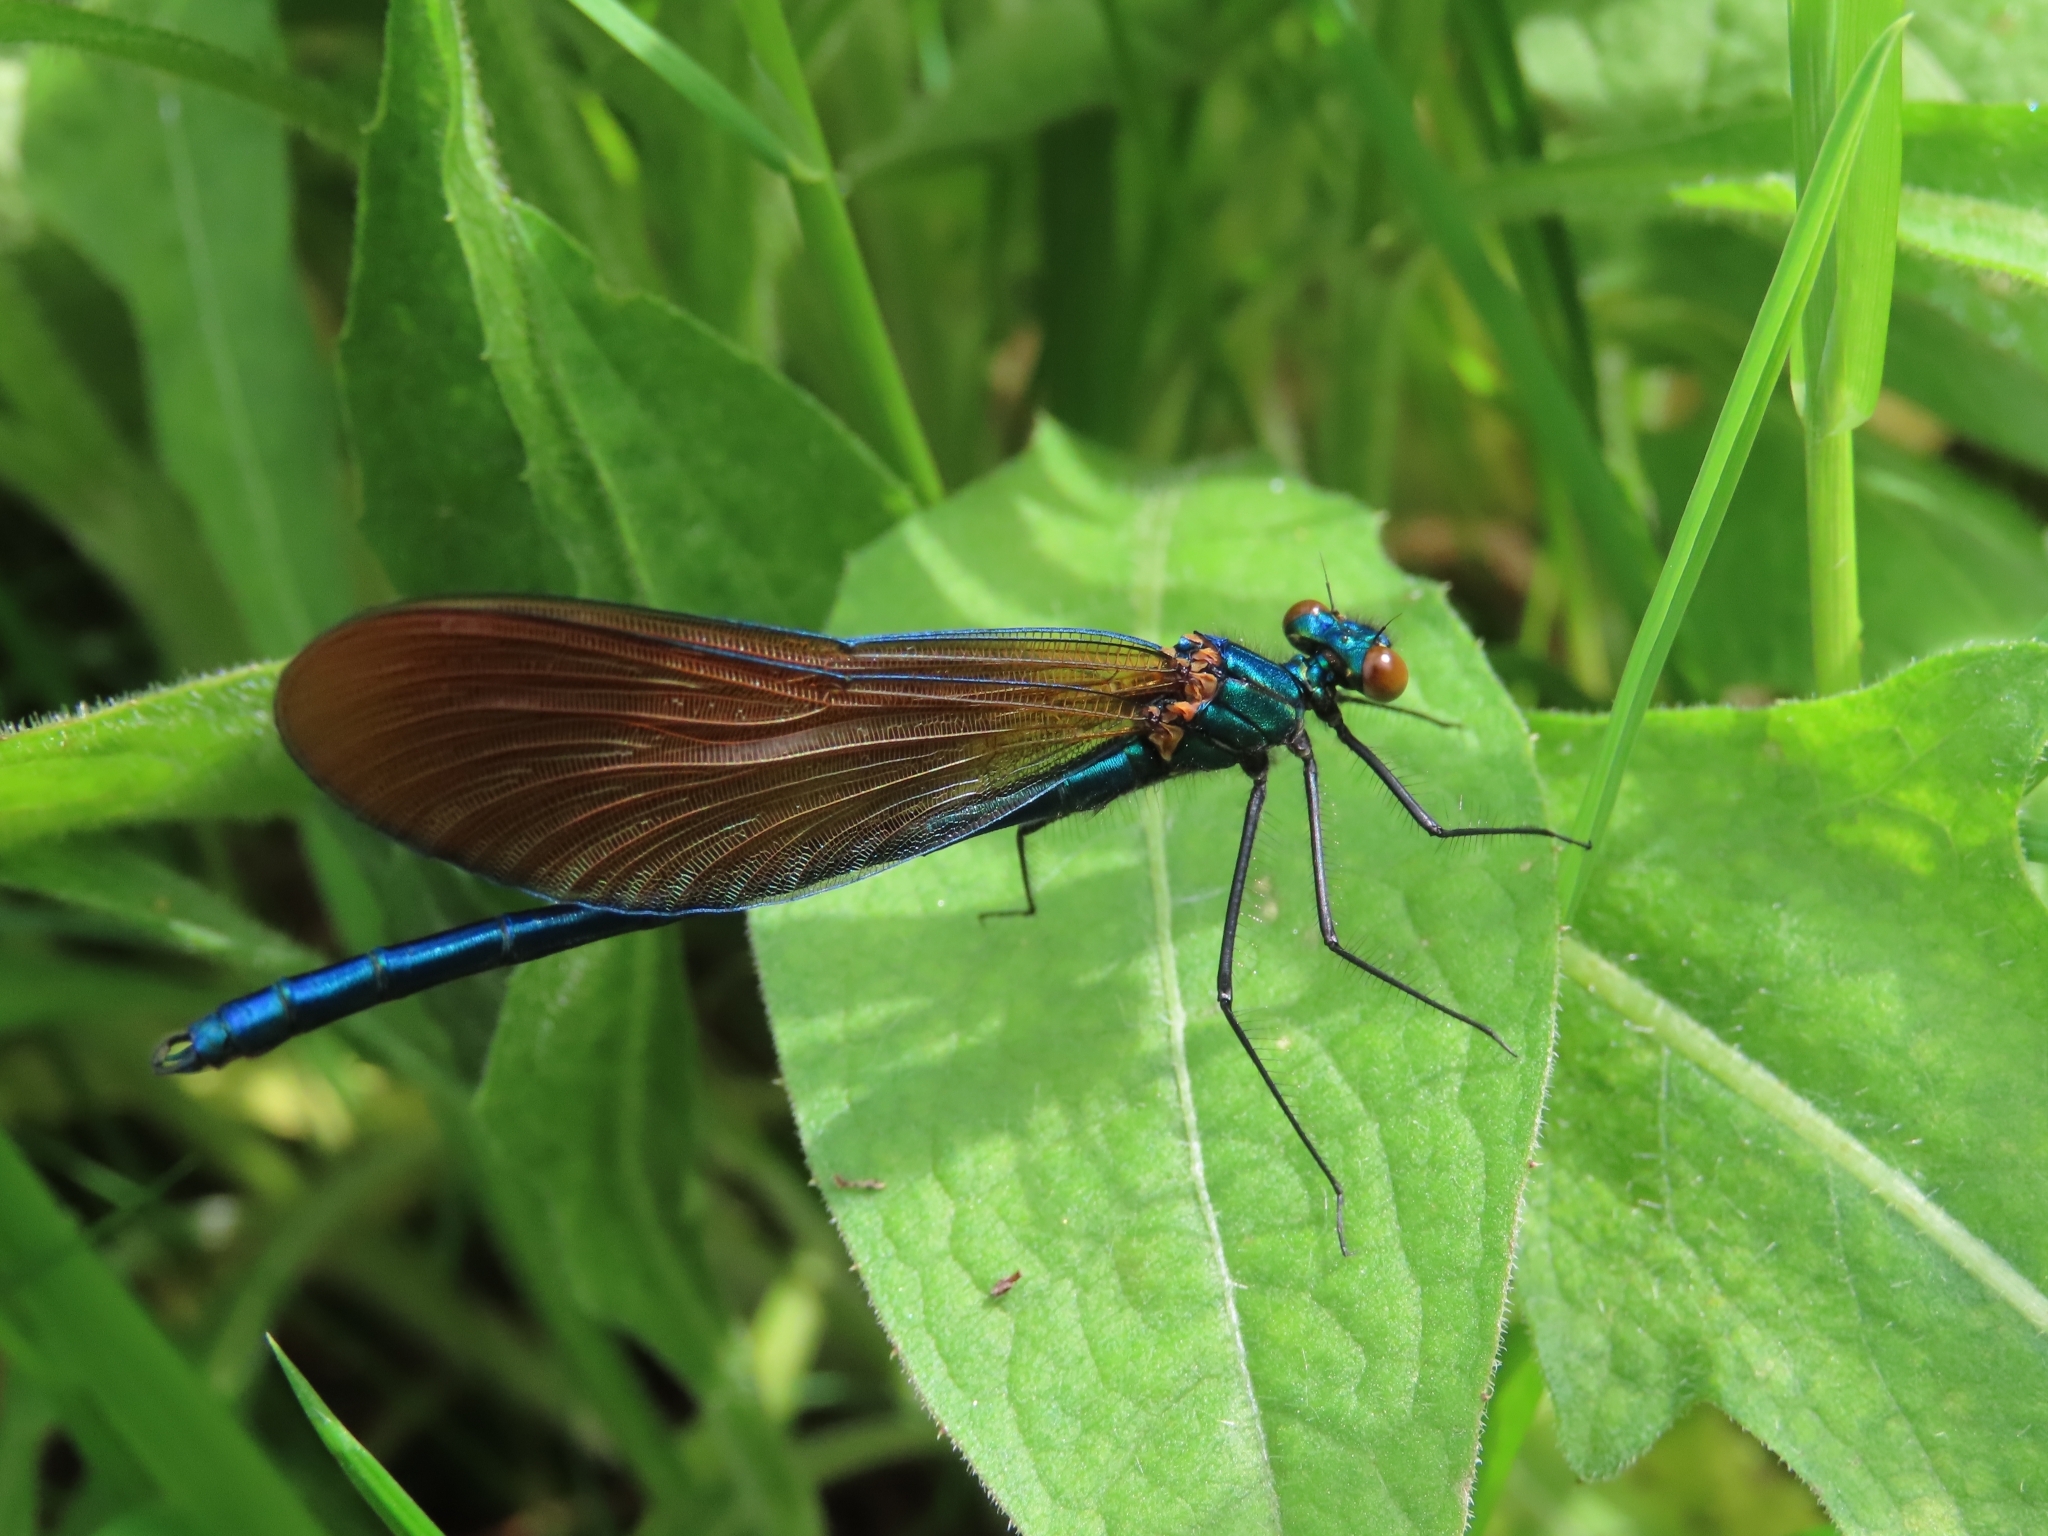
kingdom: Animalia
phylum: Arthropoda
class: Insecta
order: Odonata
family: Calopterygidae
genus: Calopteryx
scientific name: Calopteryx virgo
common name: Beautiful demoiselle
